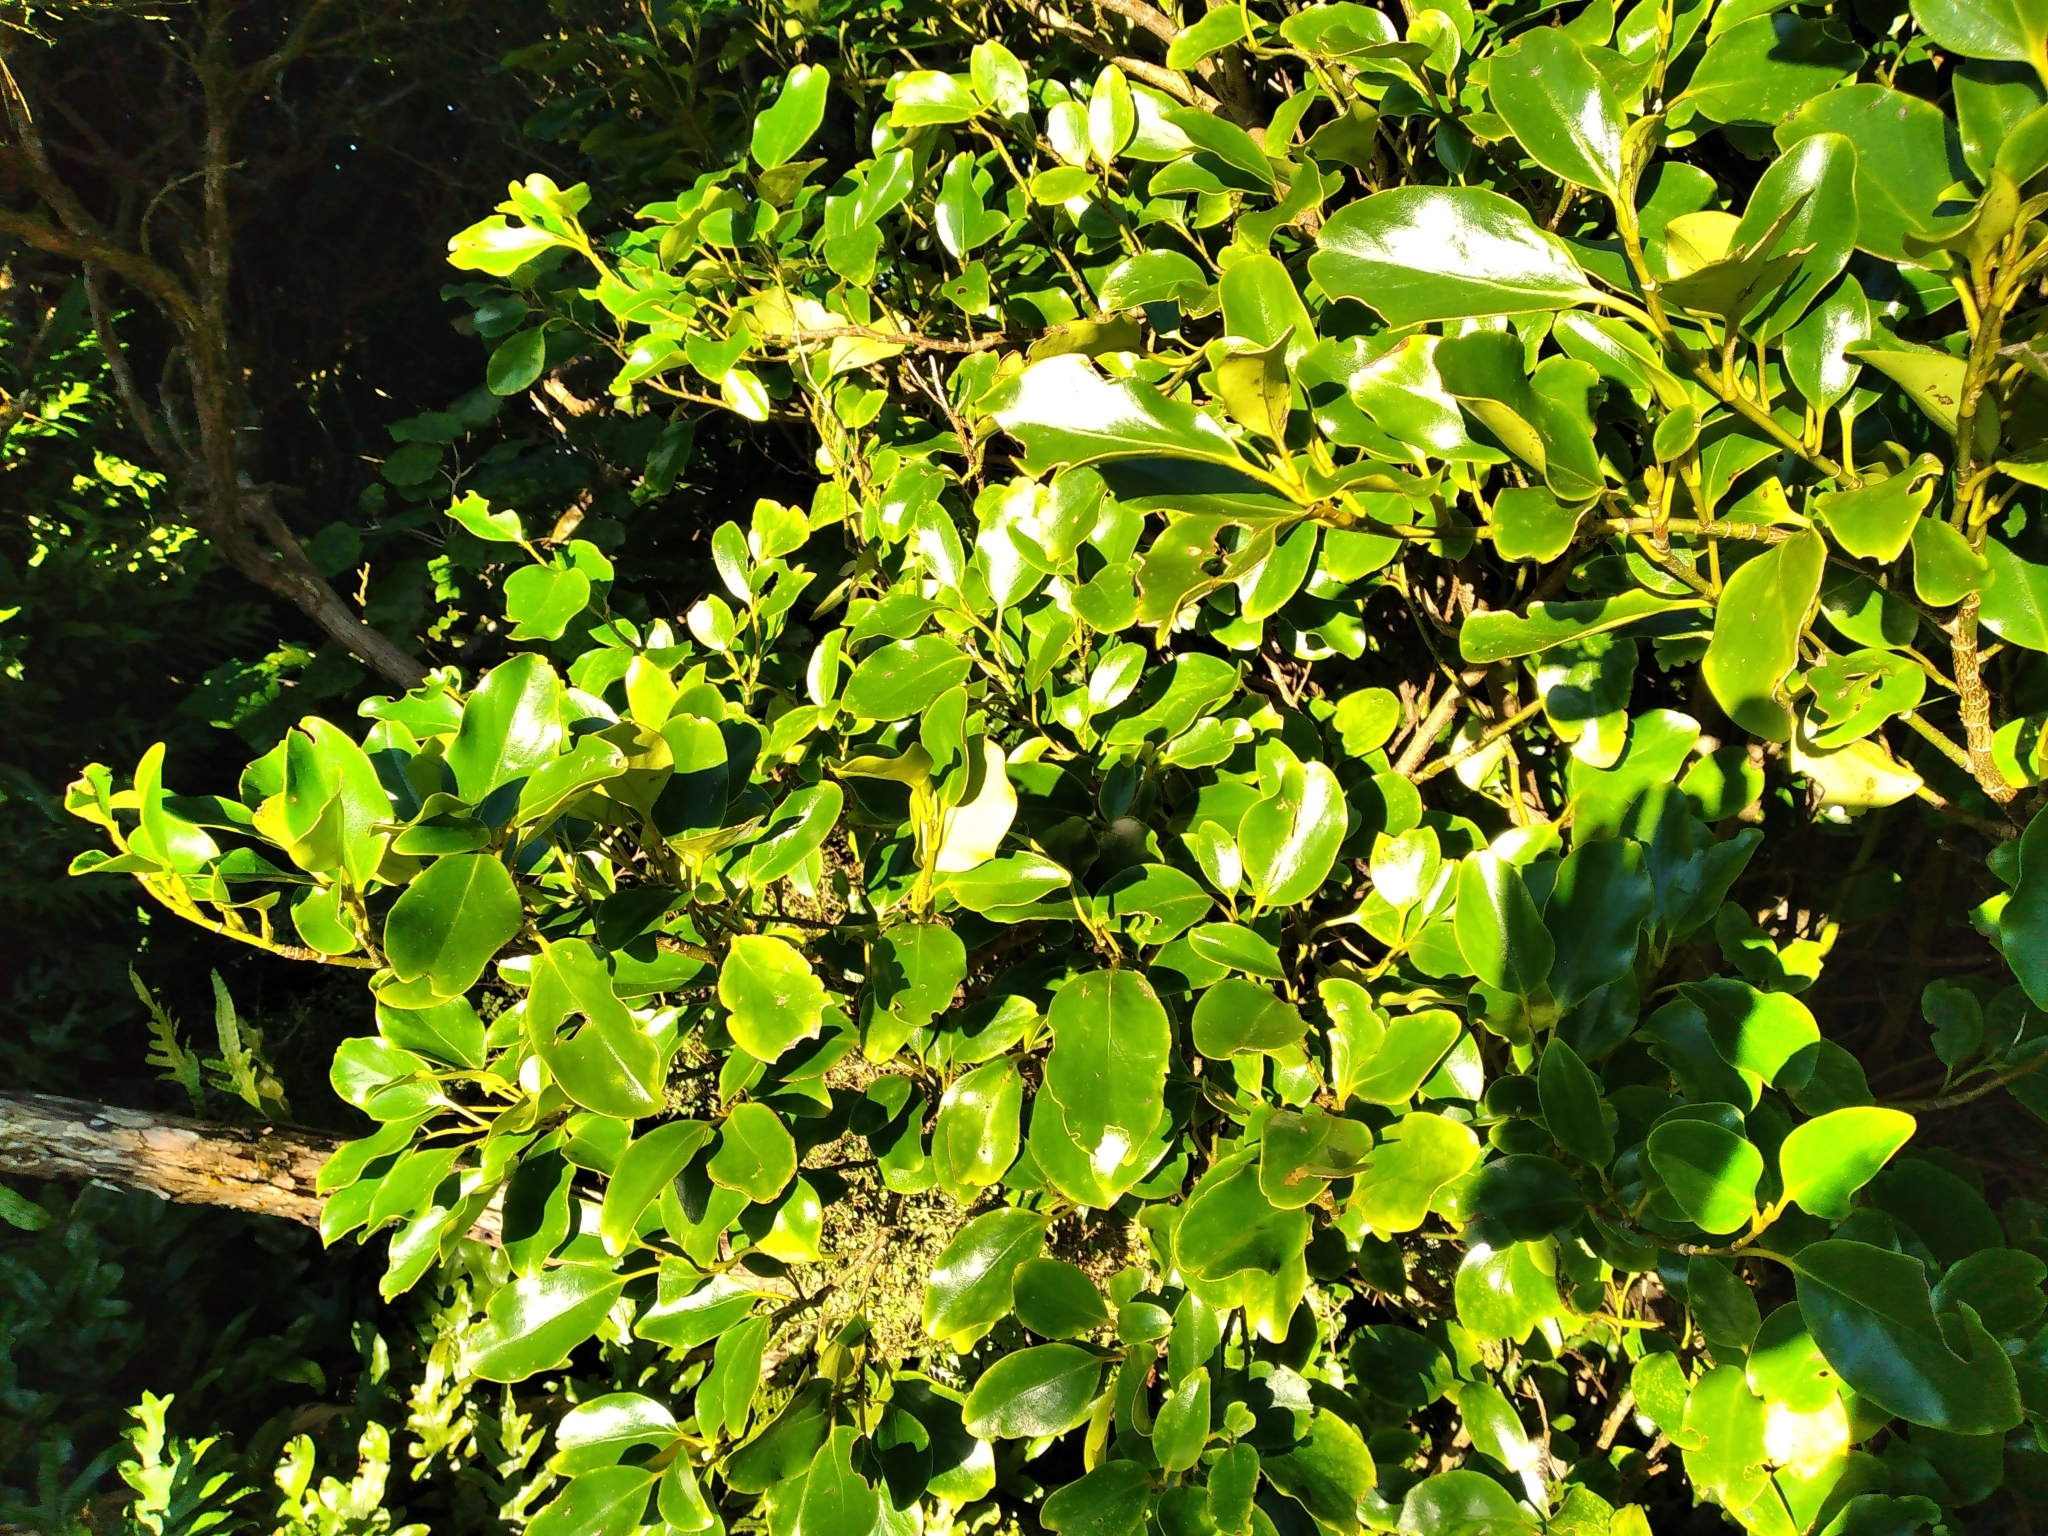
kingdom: Plantae
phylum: Tracheophyta
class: Magnoliopsida
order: Apiales
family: Griseliniaceae
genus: Griselinia
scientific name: Griselinia littoralis
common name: New zealand broadleaf
